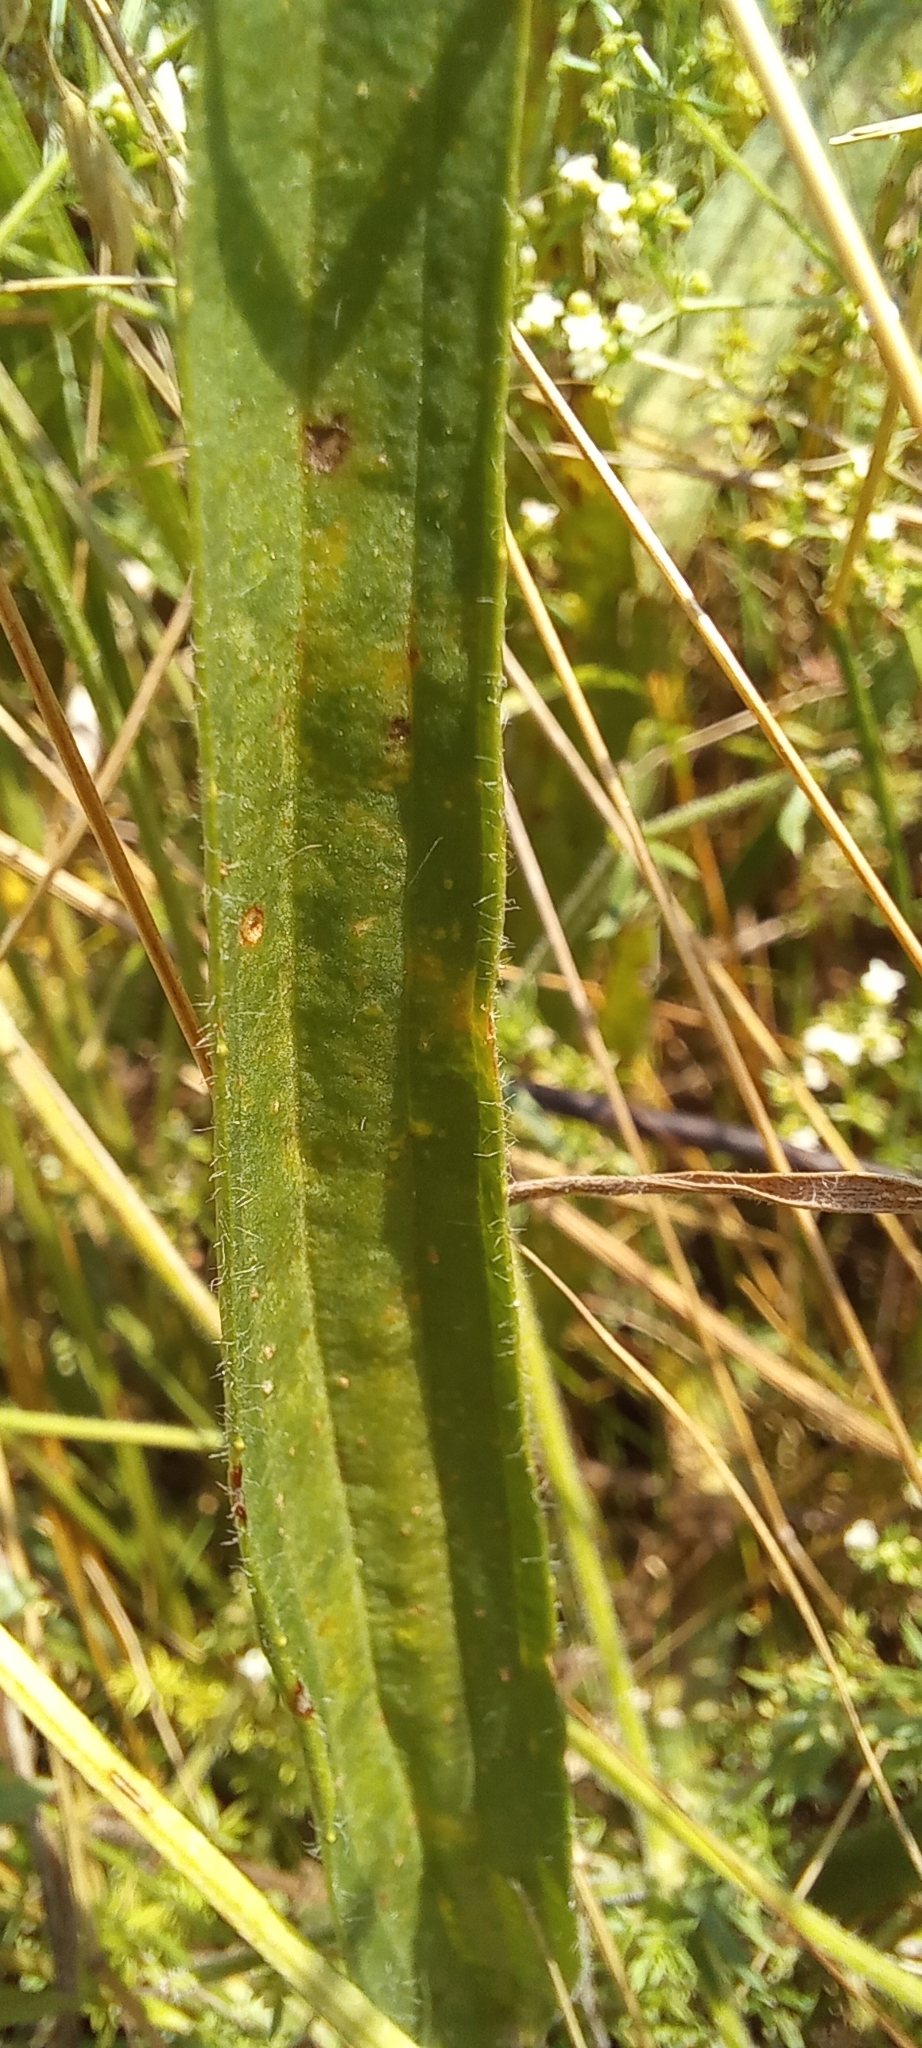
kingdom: Plantae
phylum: Tracheophyta
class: Magnoliopsida
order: Lamiales
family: Plantaginaceae
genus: Plantago
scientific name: Plantago lanceolata
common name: Ribwort plantain
